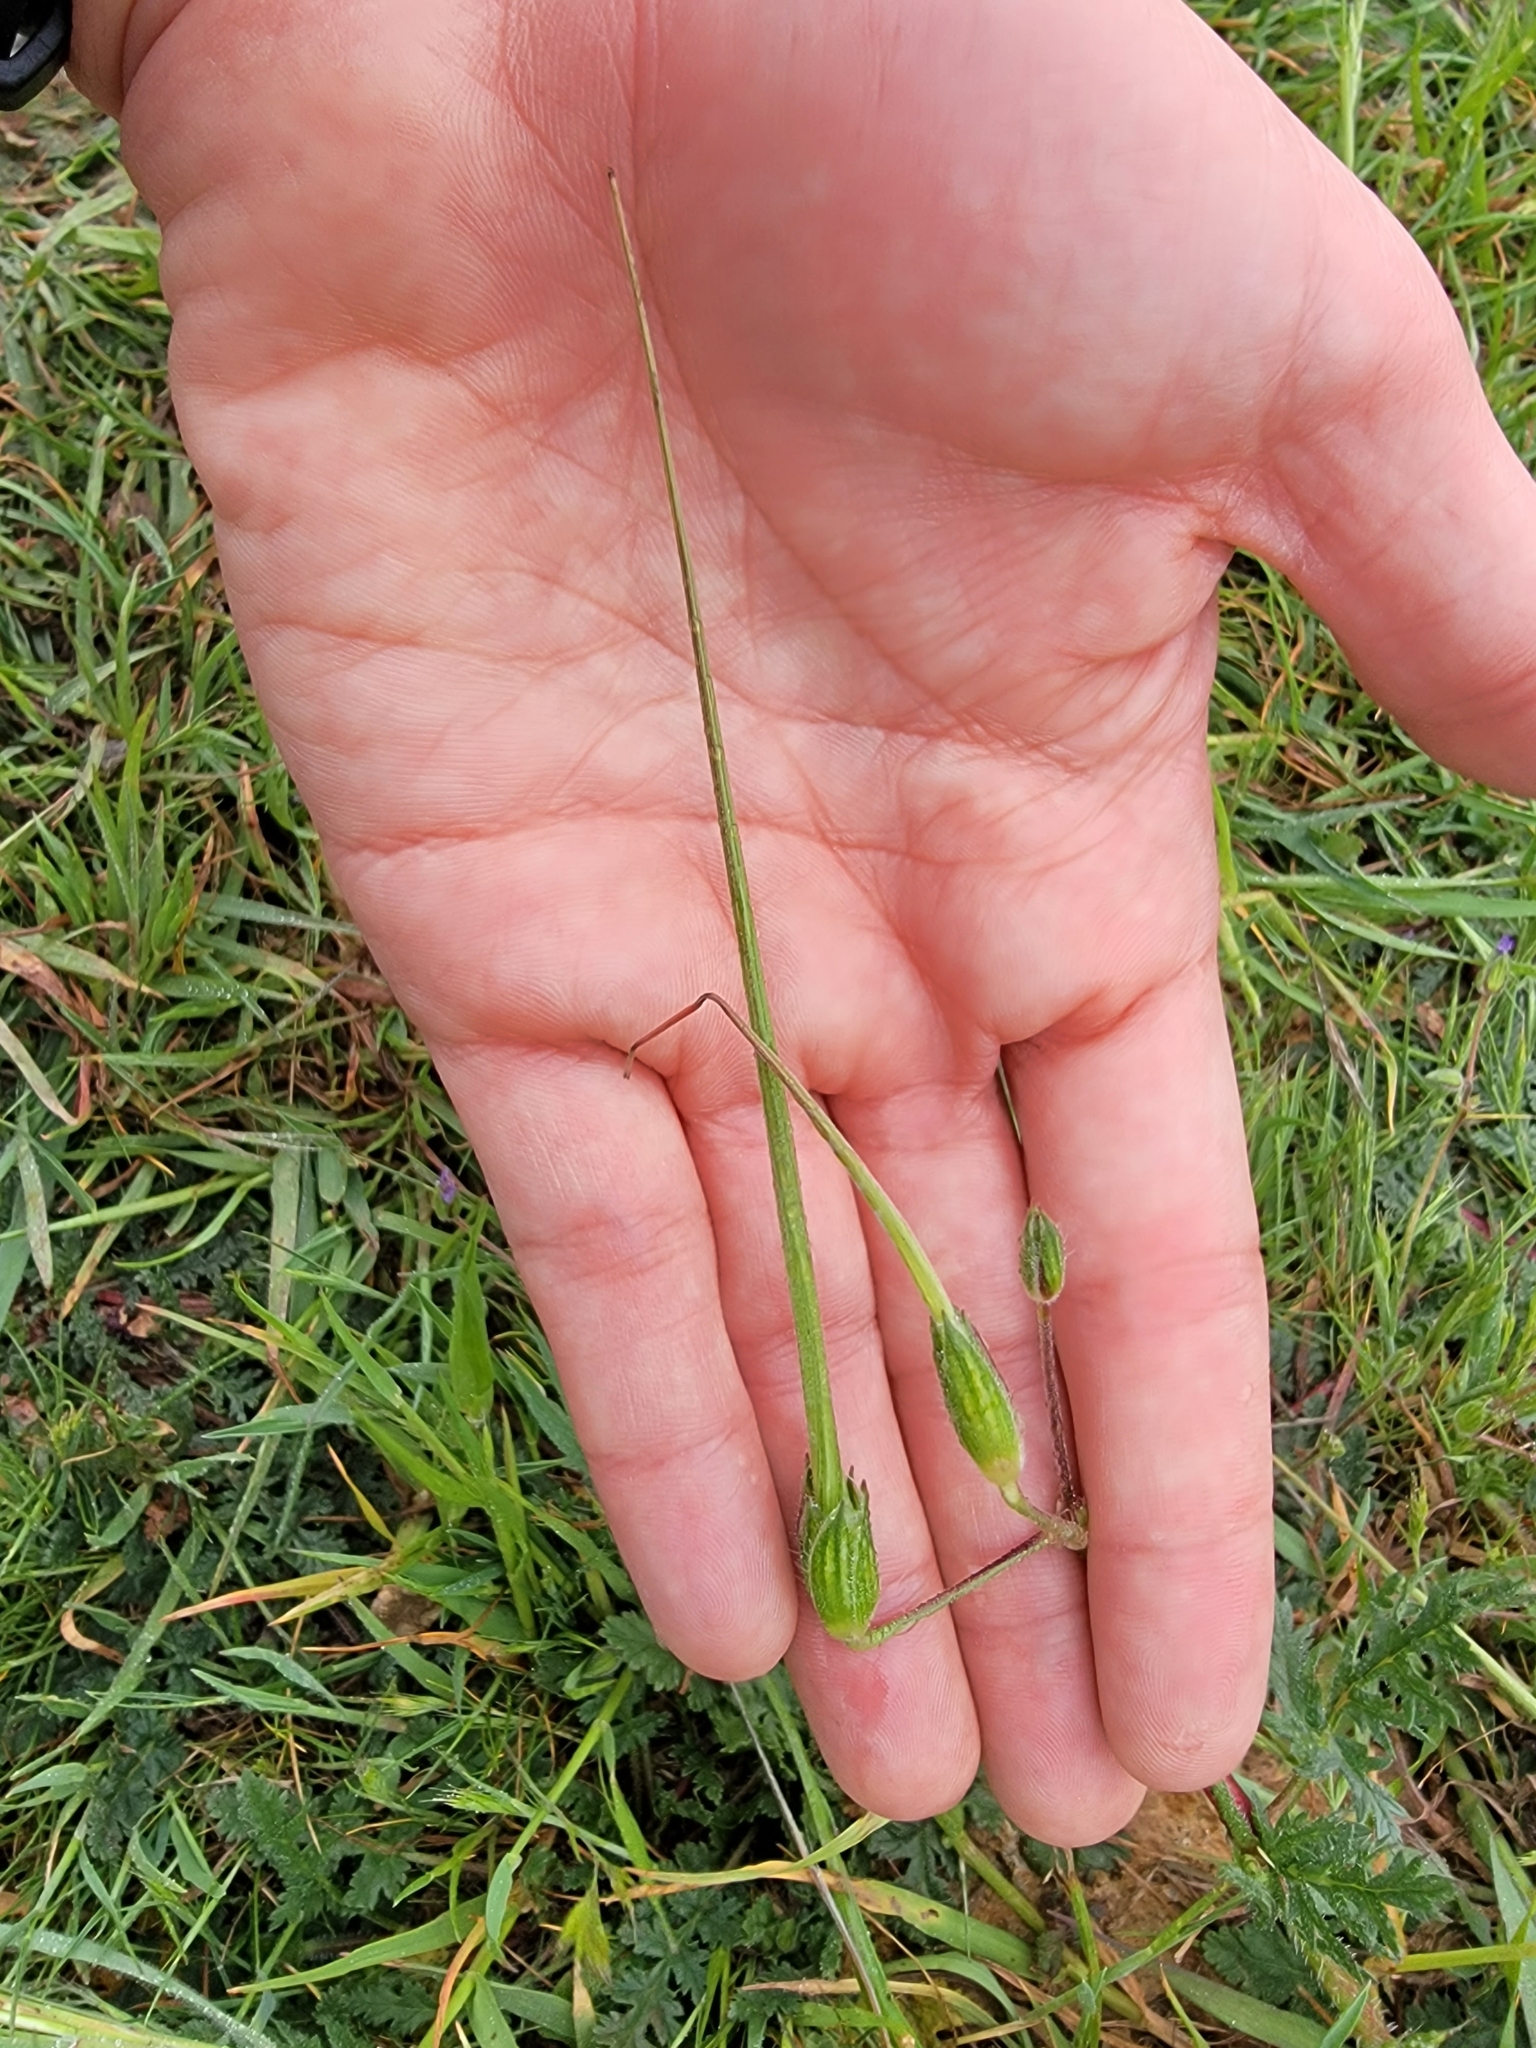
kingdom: Plantae
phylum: Tracheophyta
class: Magnoliopsida
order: Geraniales
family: Geraniaceae
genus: Erodium
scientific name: Erodium botrys
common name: Mediterranean stork's-bill
